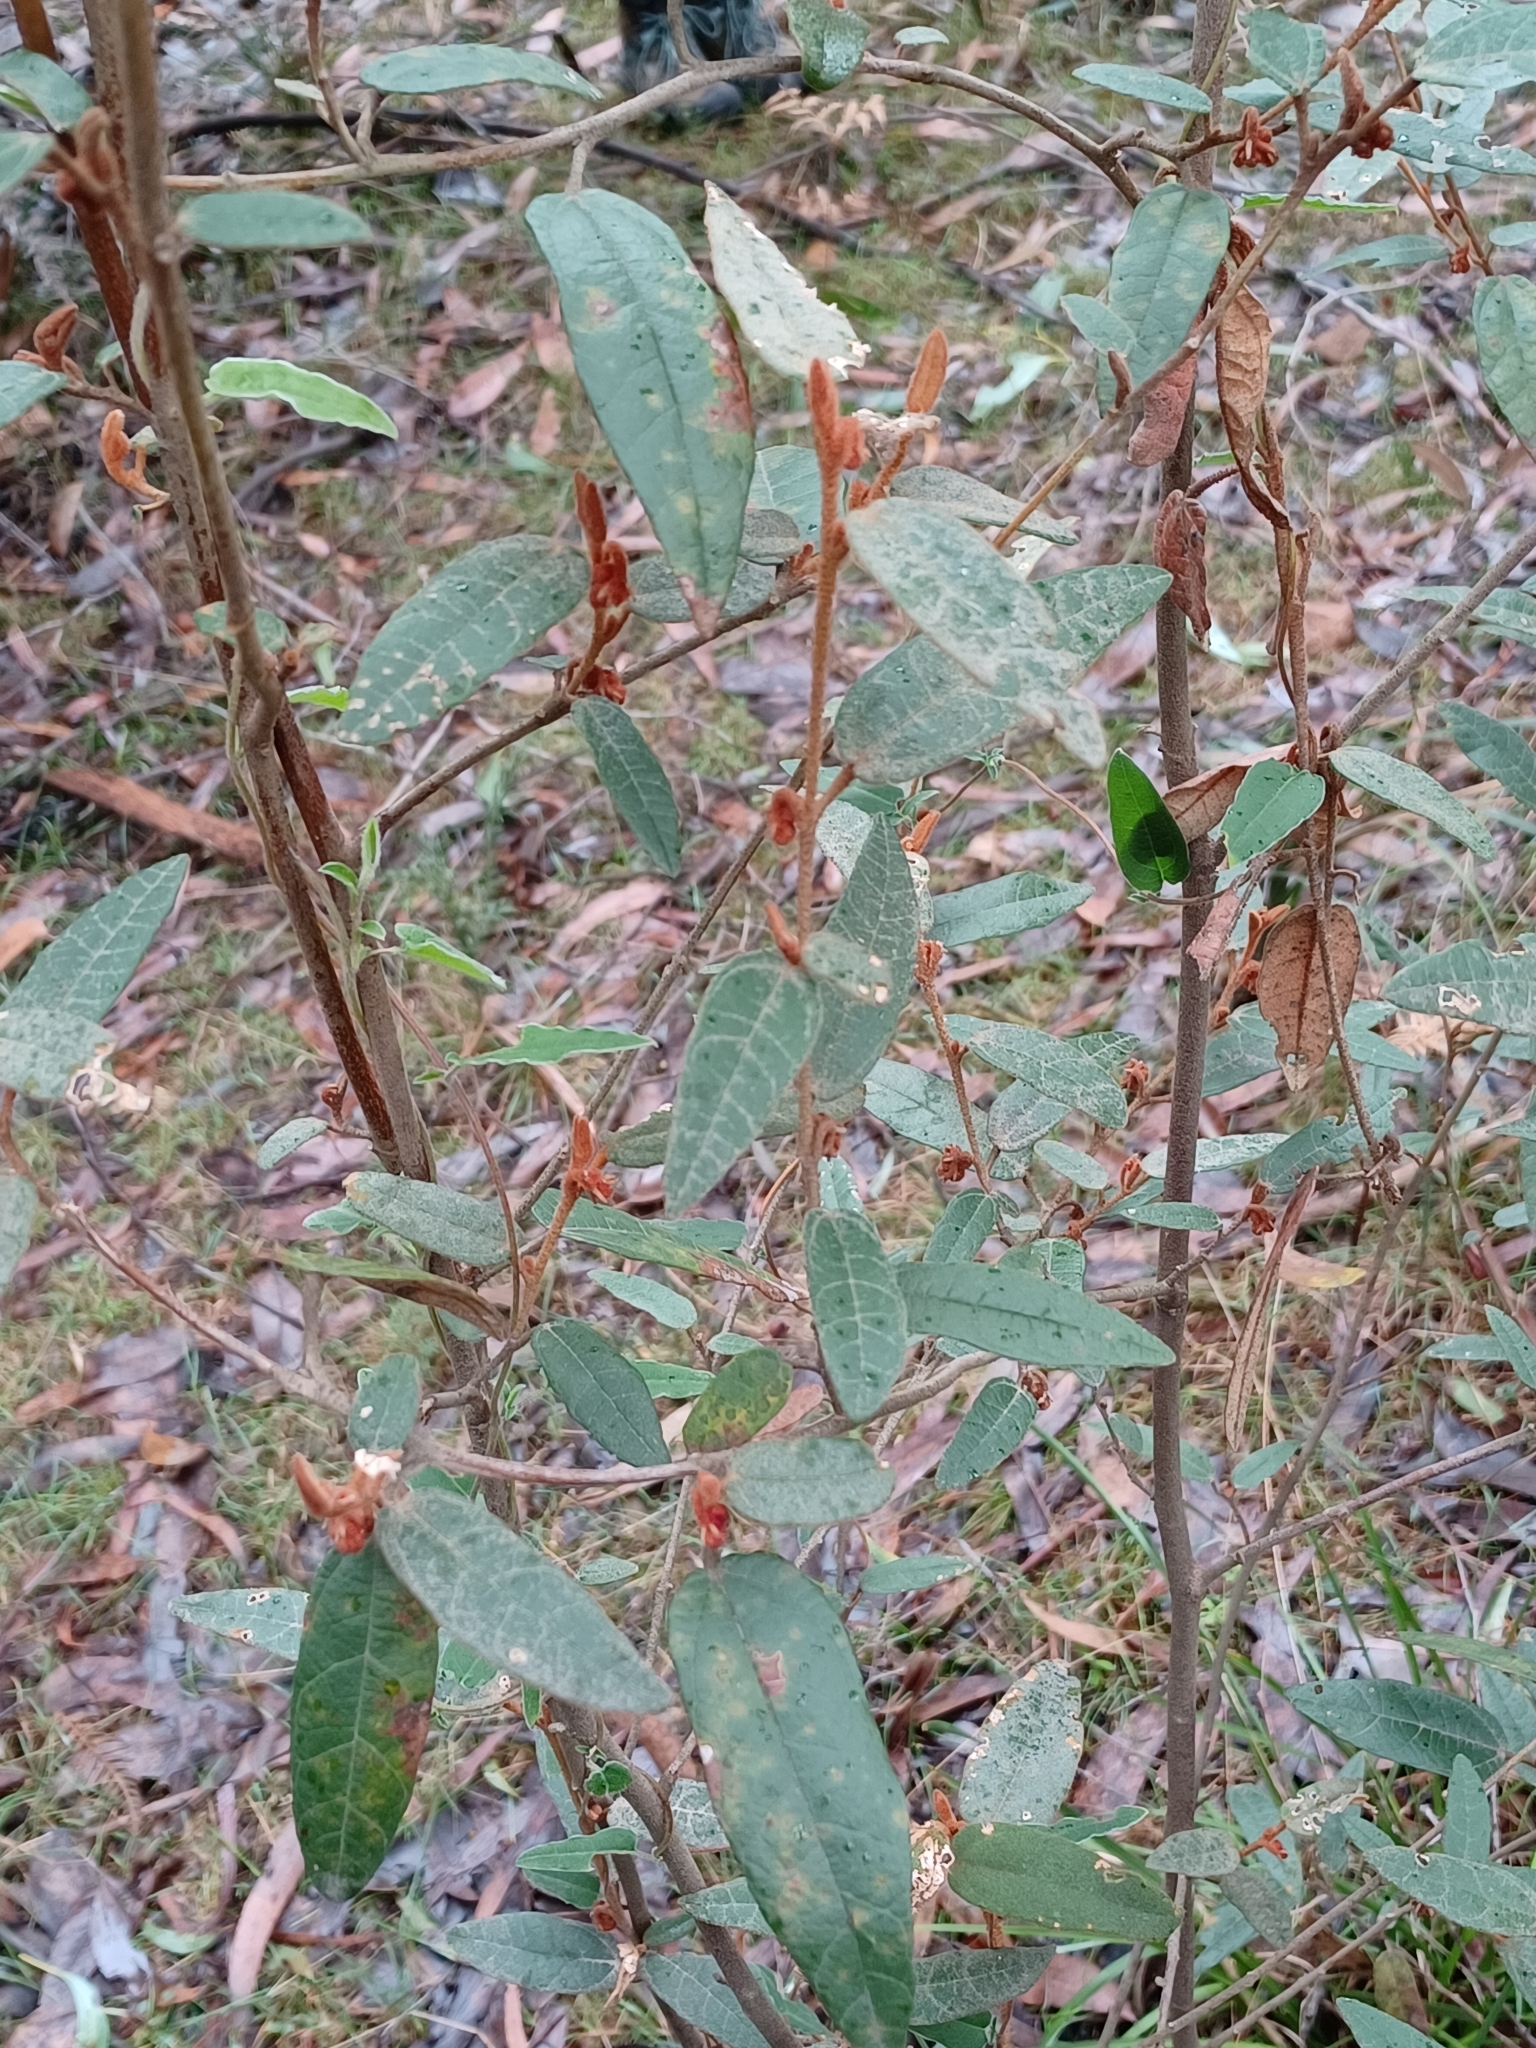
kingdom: Plantae
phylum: Tracheophyta
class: Magnoliopsida
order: Malvales
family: Malvaceae
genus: Lasiopetalum
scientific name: Lasiopetalum macrophyllum
